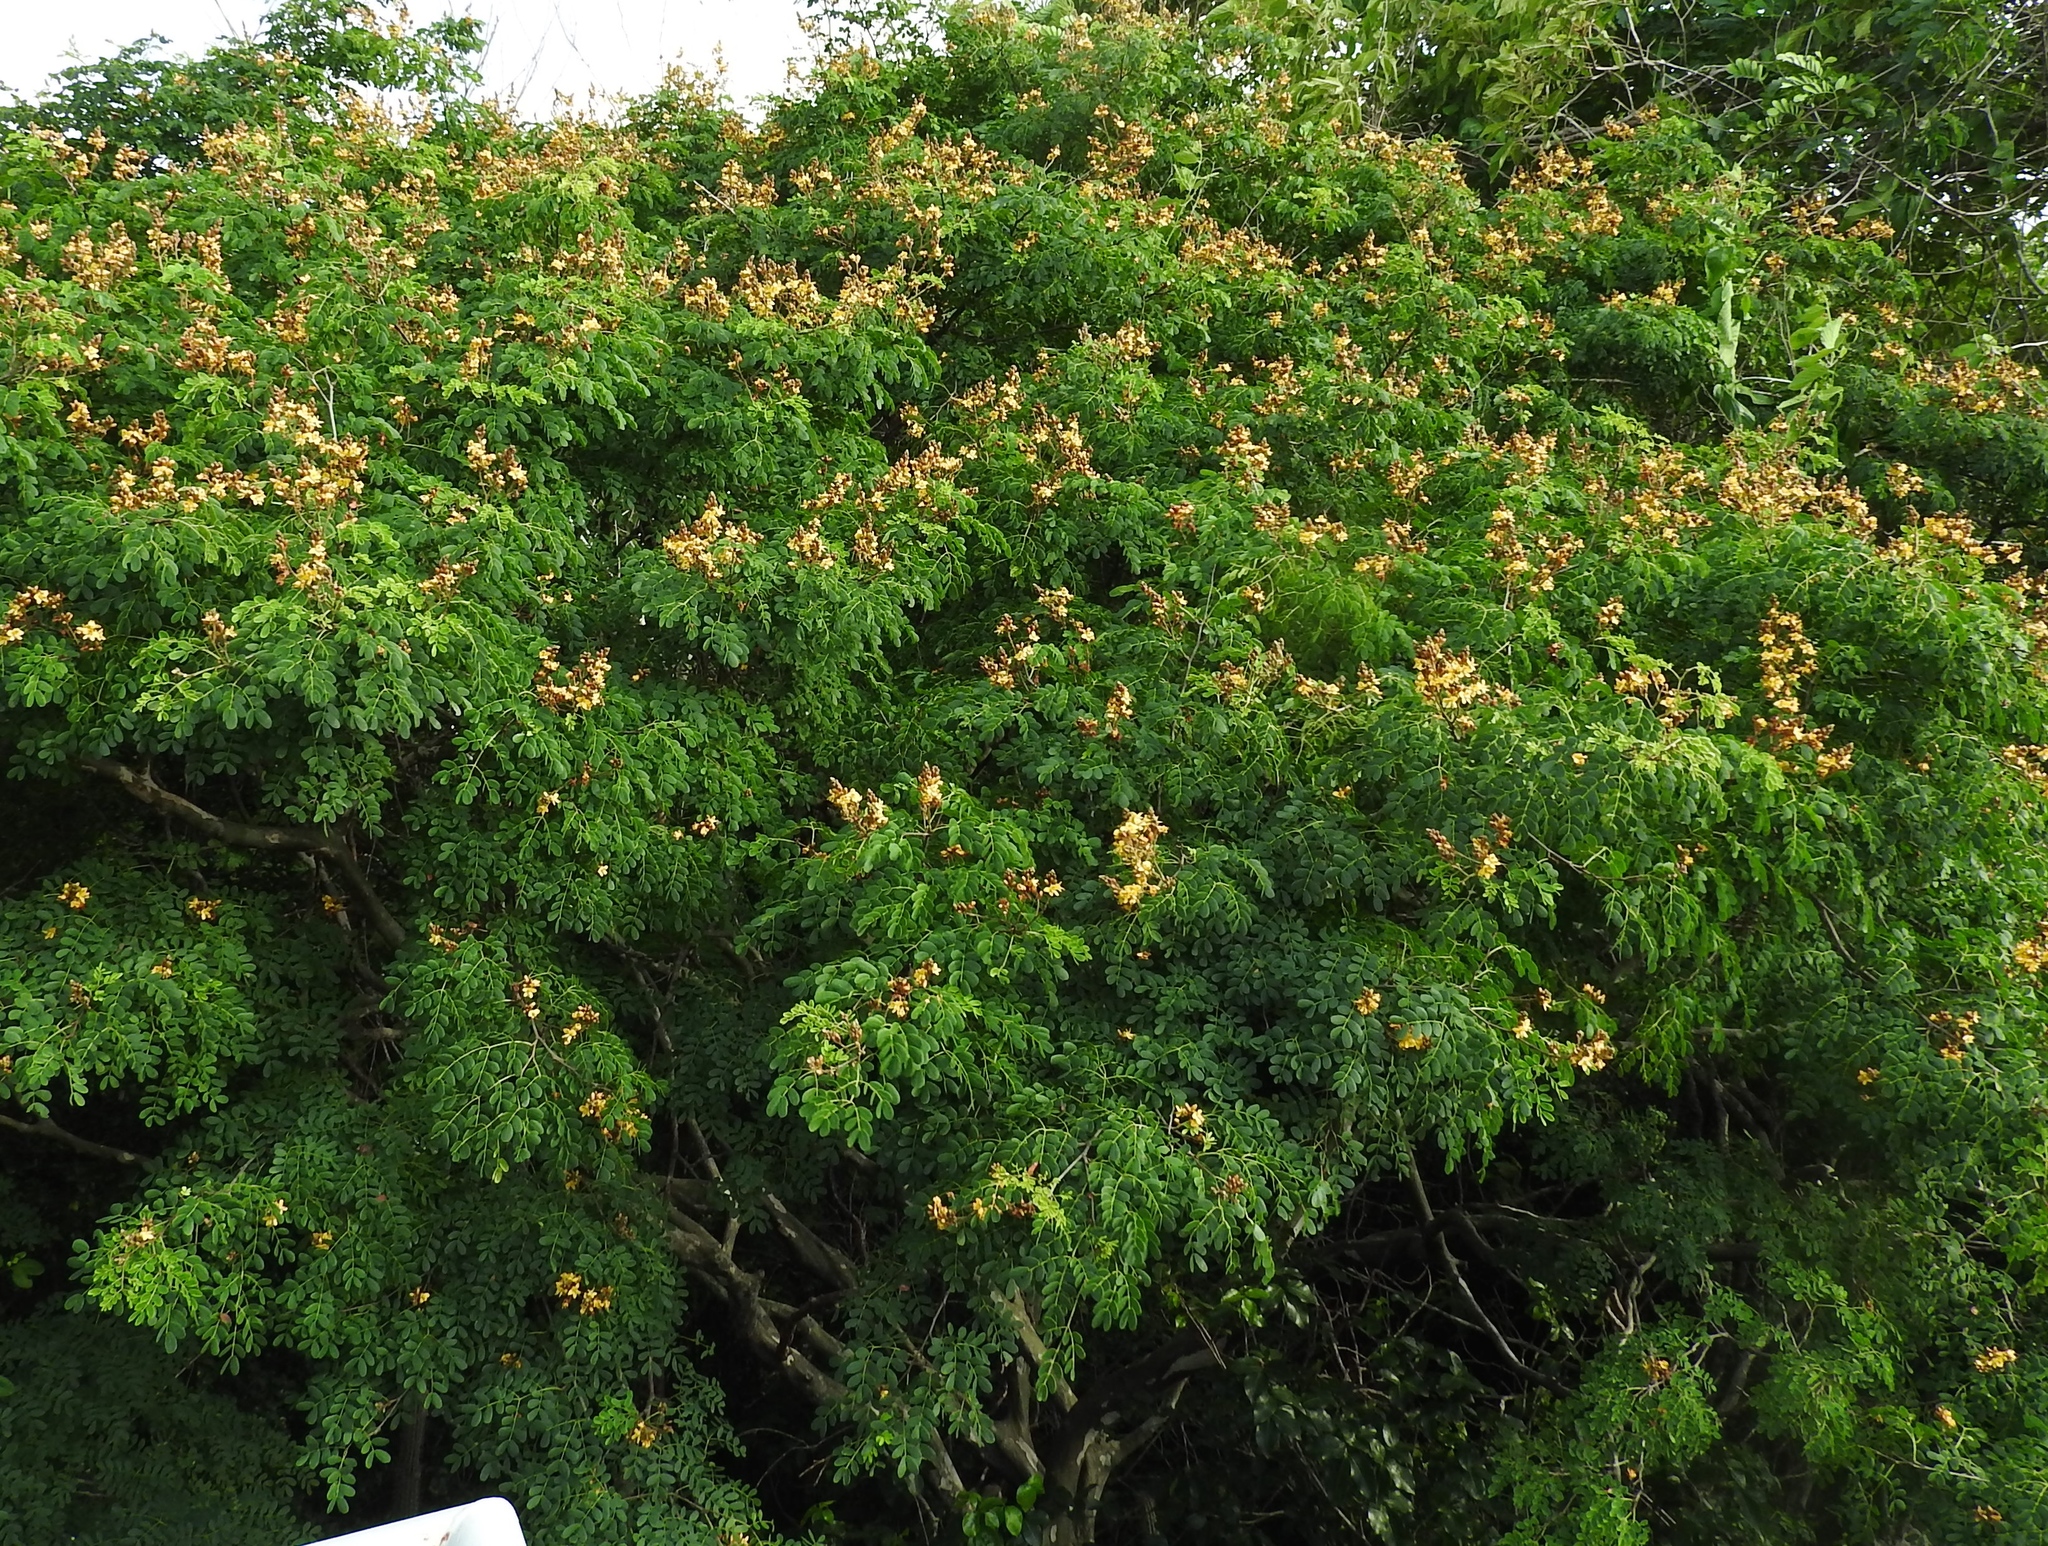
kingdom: Plantae
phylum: Tracheophyta
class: Magnoliopsida
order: Fabales
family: Fabaceae
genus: Libidibia
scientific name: Libidibia sclerocarpa
